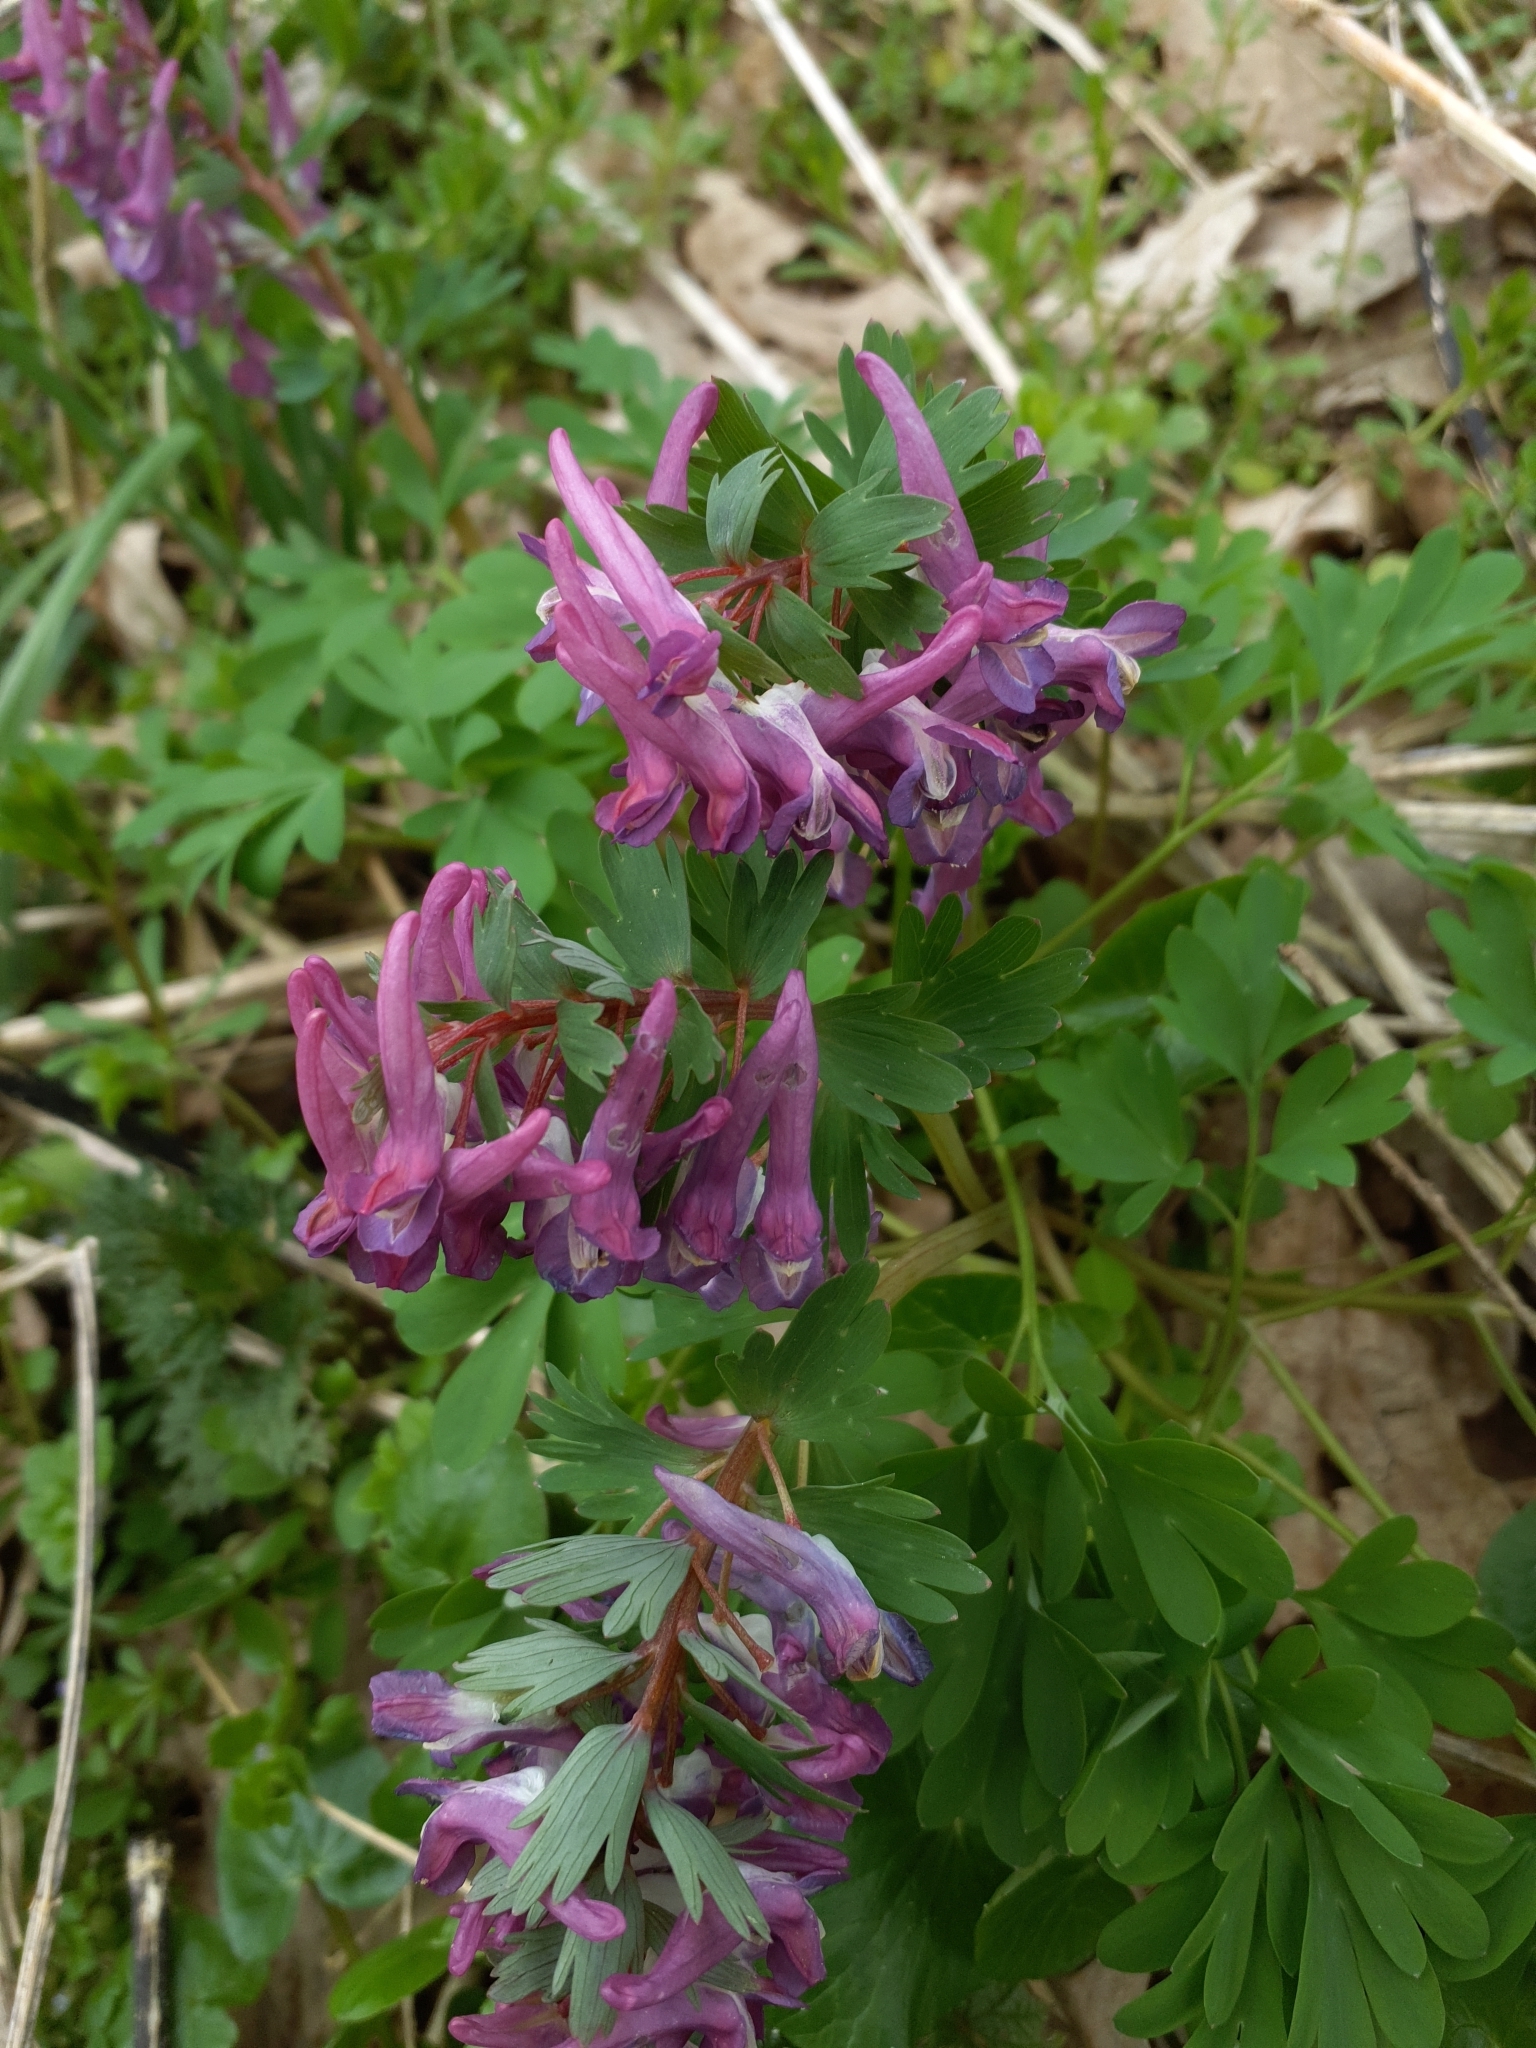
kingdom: Plantae
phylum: Tracheophyta
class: Magnoliopsida
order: Ranunculales
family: Papaveraceae
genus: Corydalis
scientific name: Corydalis solida
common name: Bird-in-a-bush
